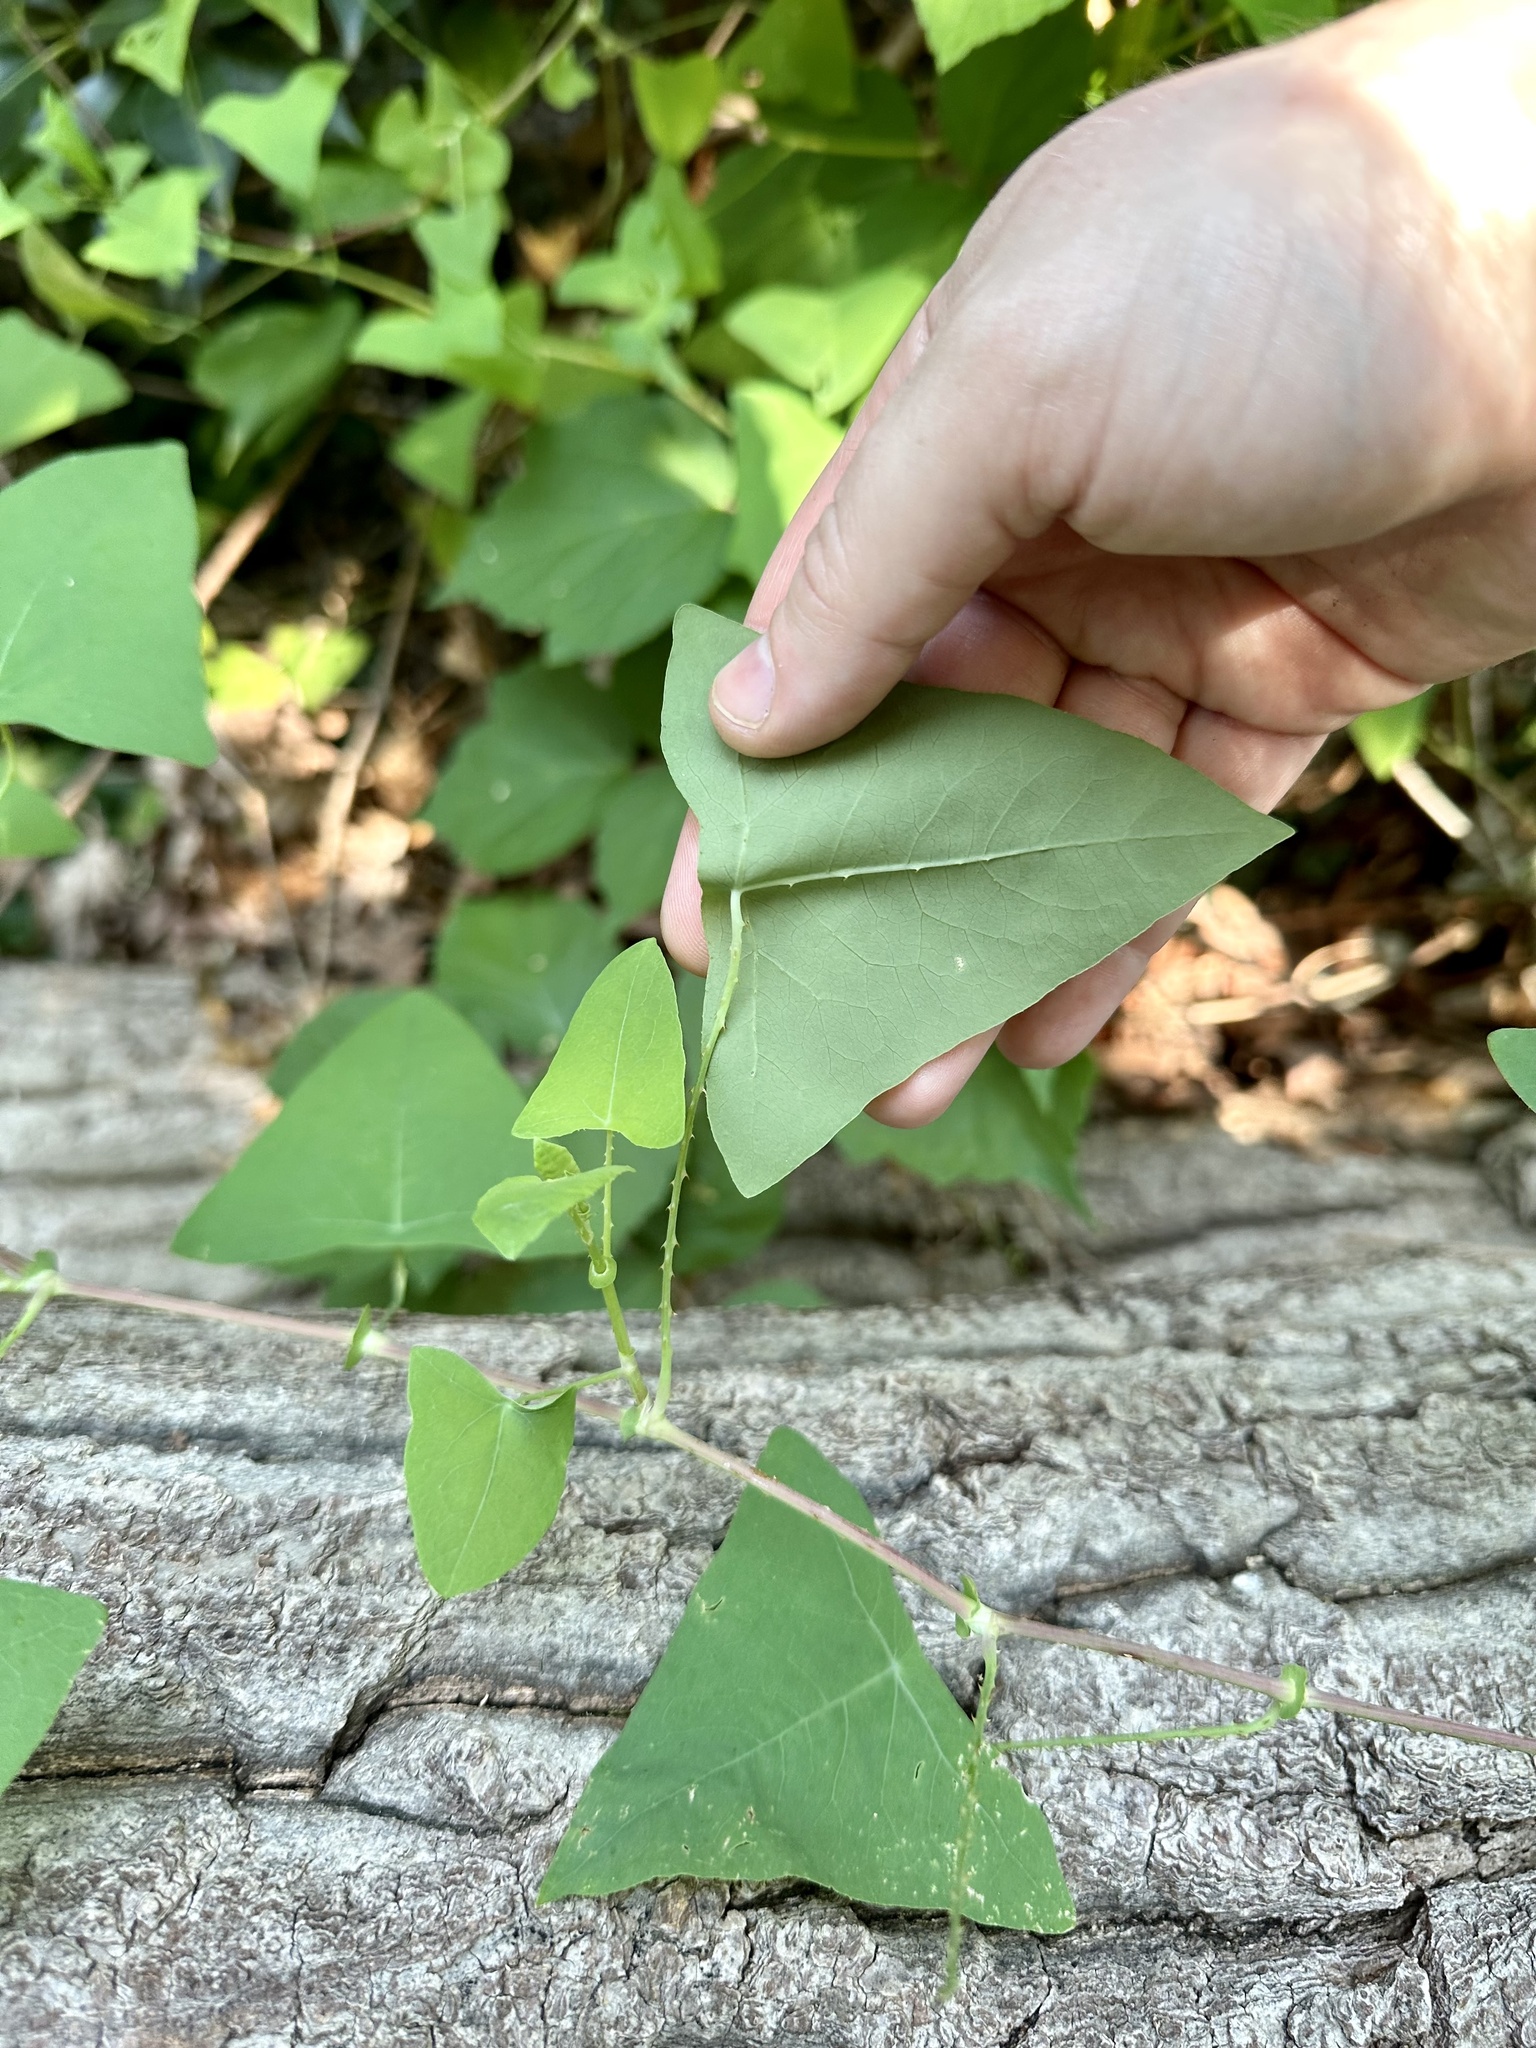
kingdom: Plantae
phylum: Tracheophyta
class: Magnoliopsida
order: Caryophyllales
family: Polygonaceae
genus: Persicaria
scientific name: Persicaria perfoliata
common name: Asiatic tearthumb
